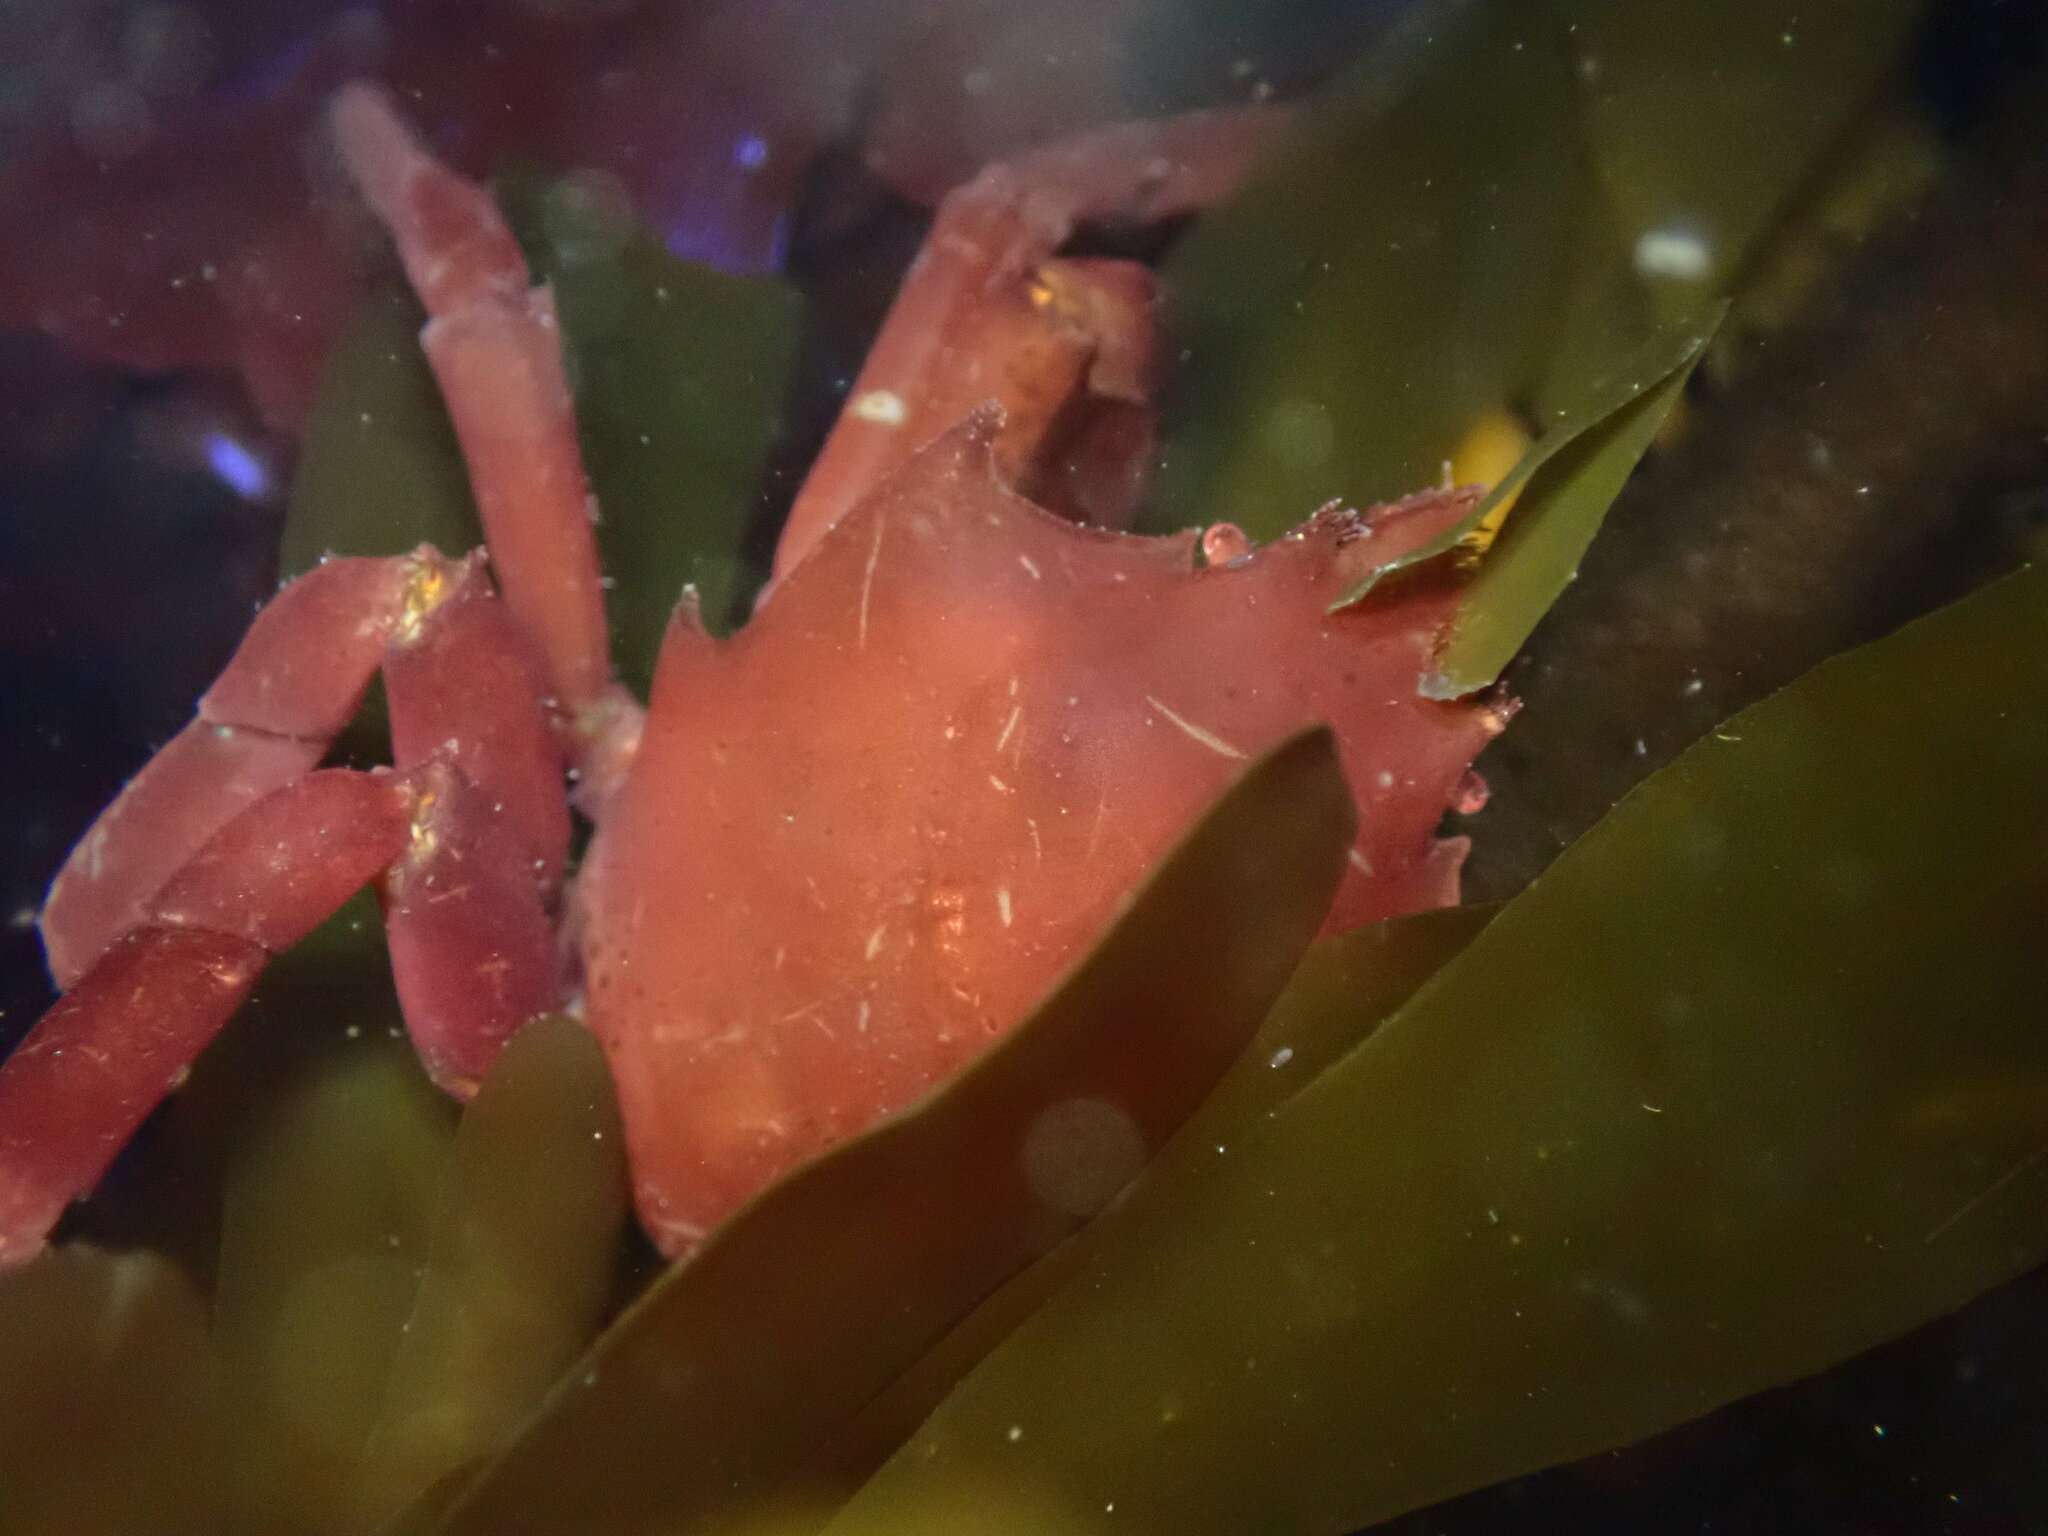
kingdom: Animalia
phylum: Arthropoda
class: Malacostraca
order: Decapoda
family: Epialtidae
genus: Pugettia
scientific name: Pugettia producta
